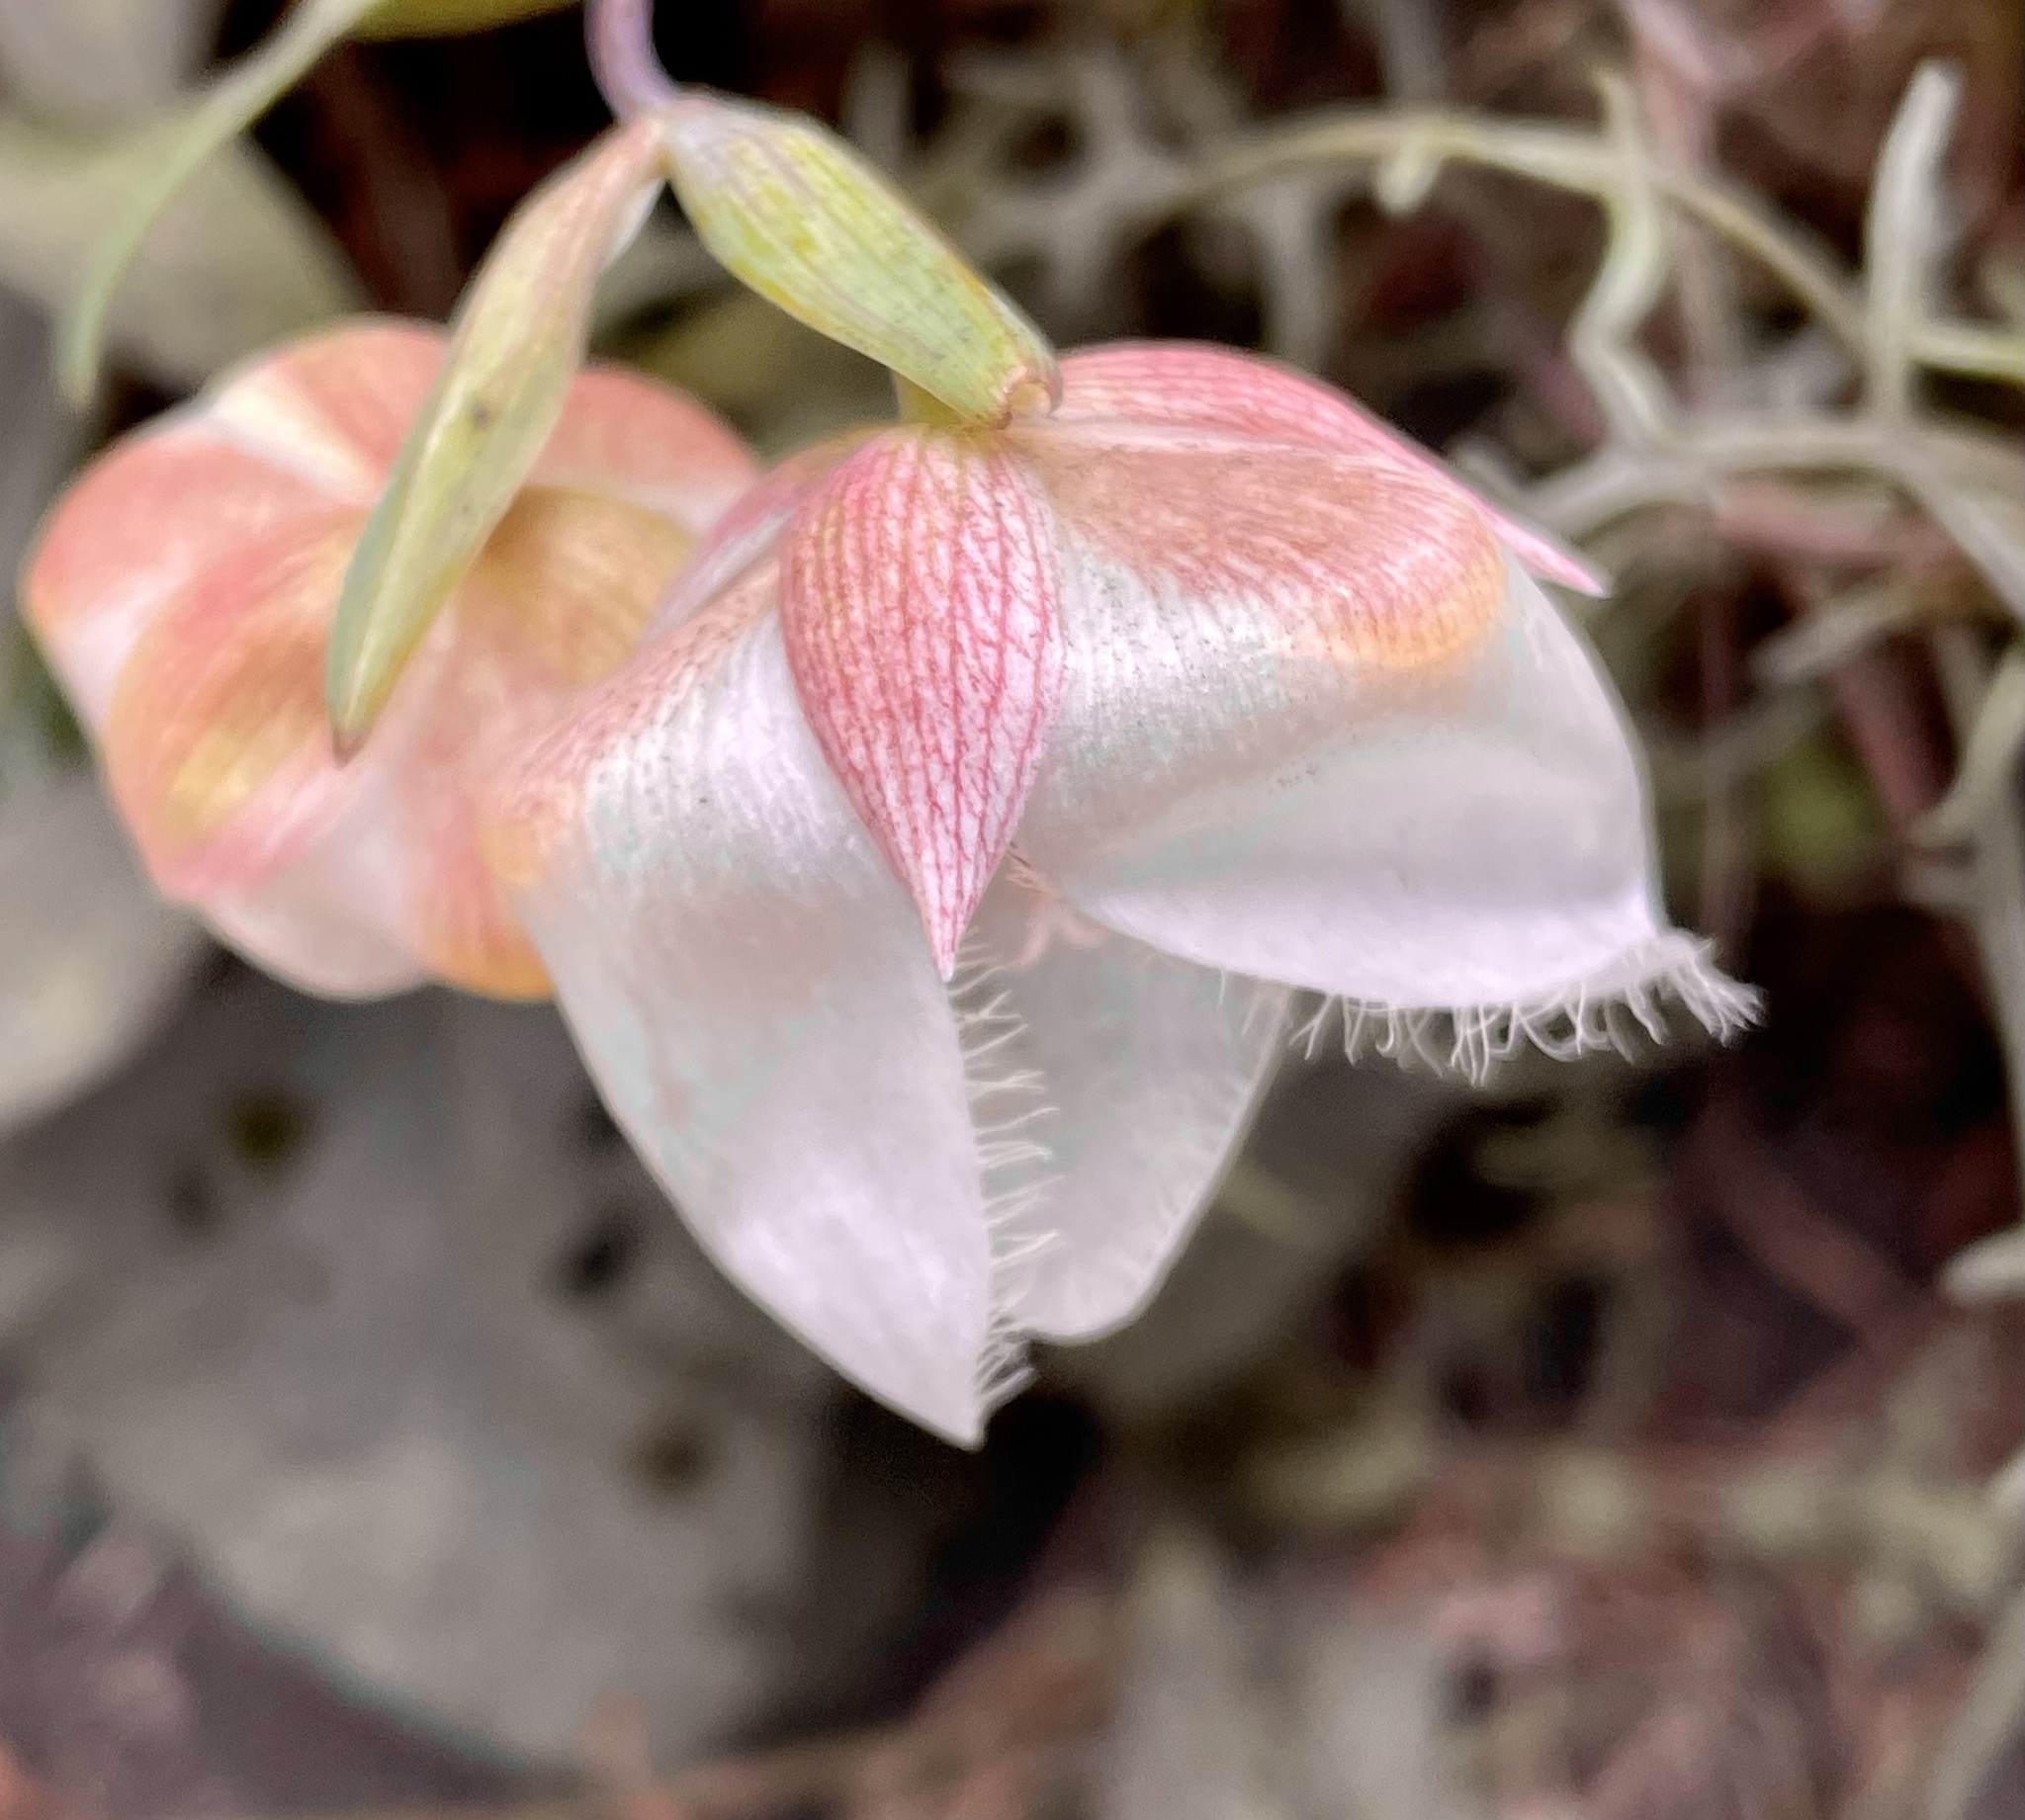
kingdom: Plantae
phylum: Tracheophyta
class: Liliopsida
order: Liliales
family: Liliaceae
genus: Calochortus
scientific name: Calochortus albus
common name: Fairy-lantern
